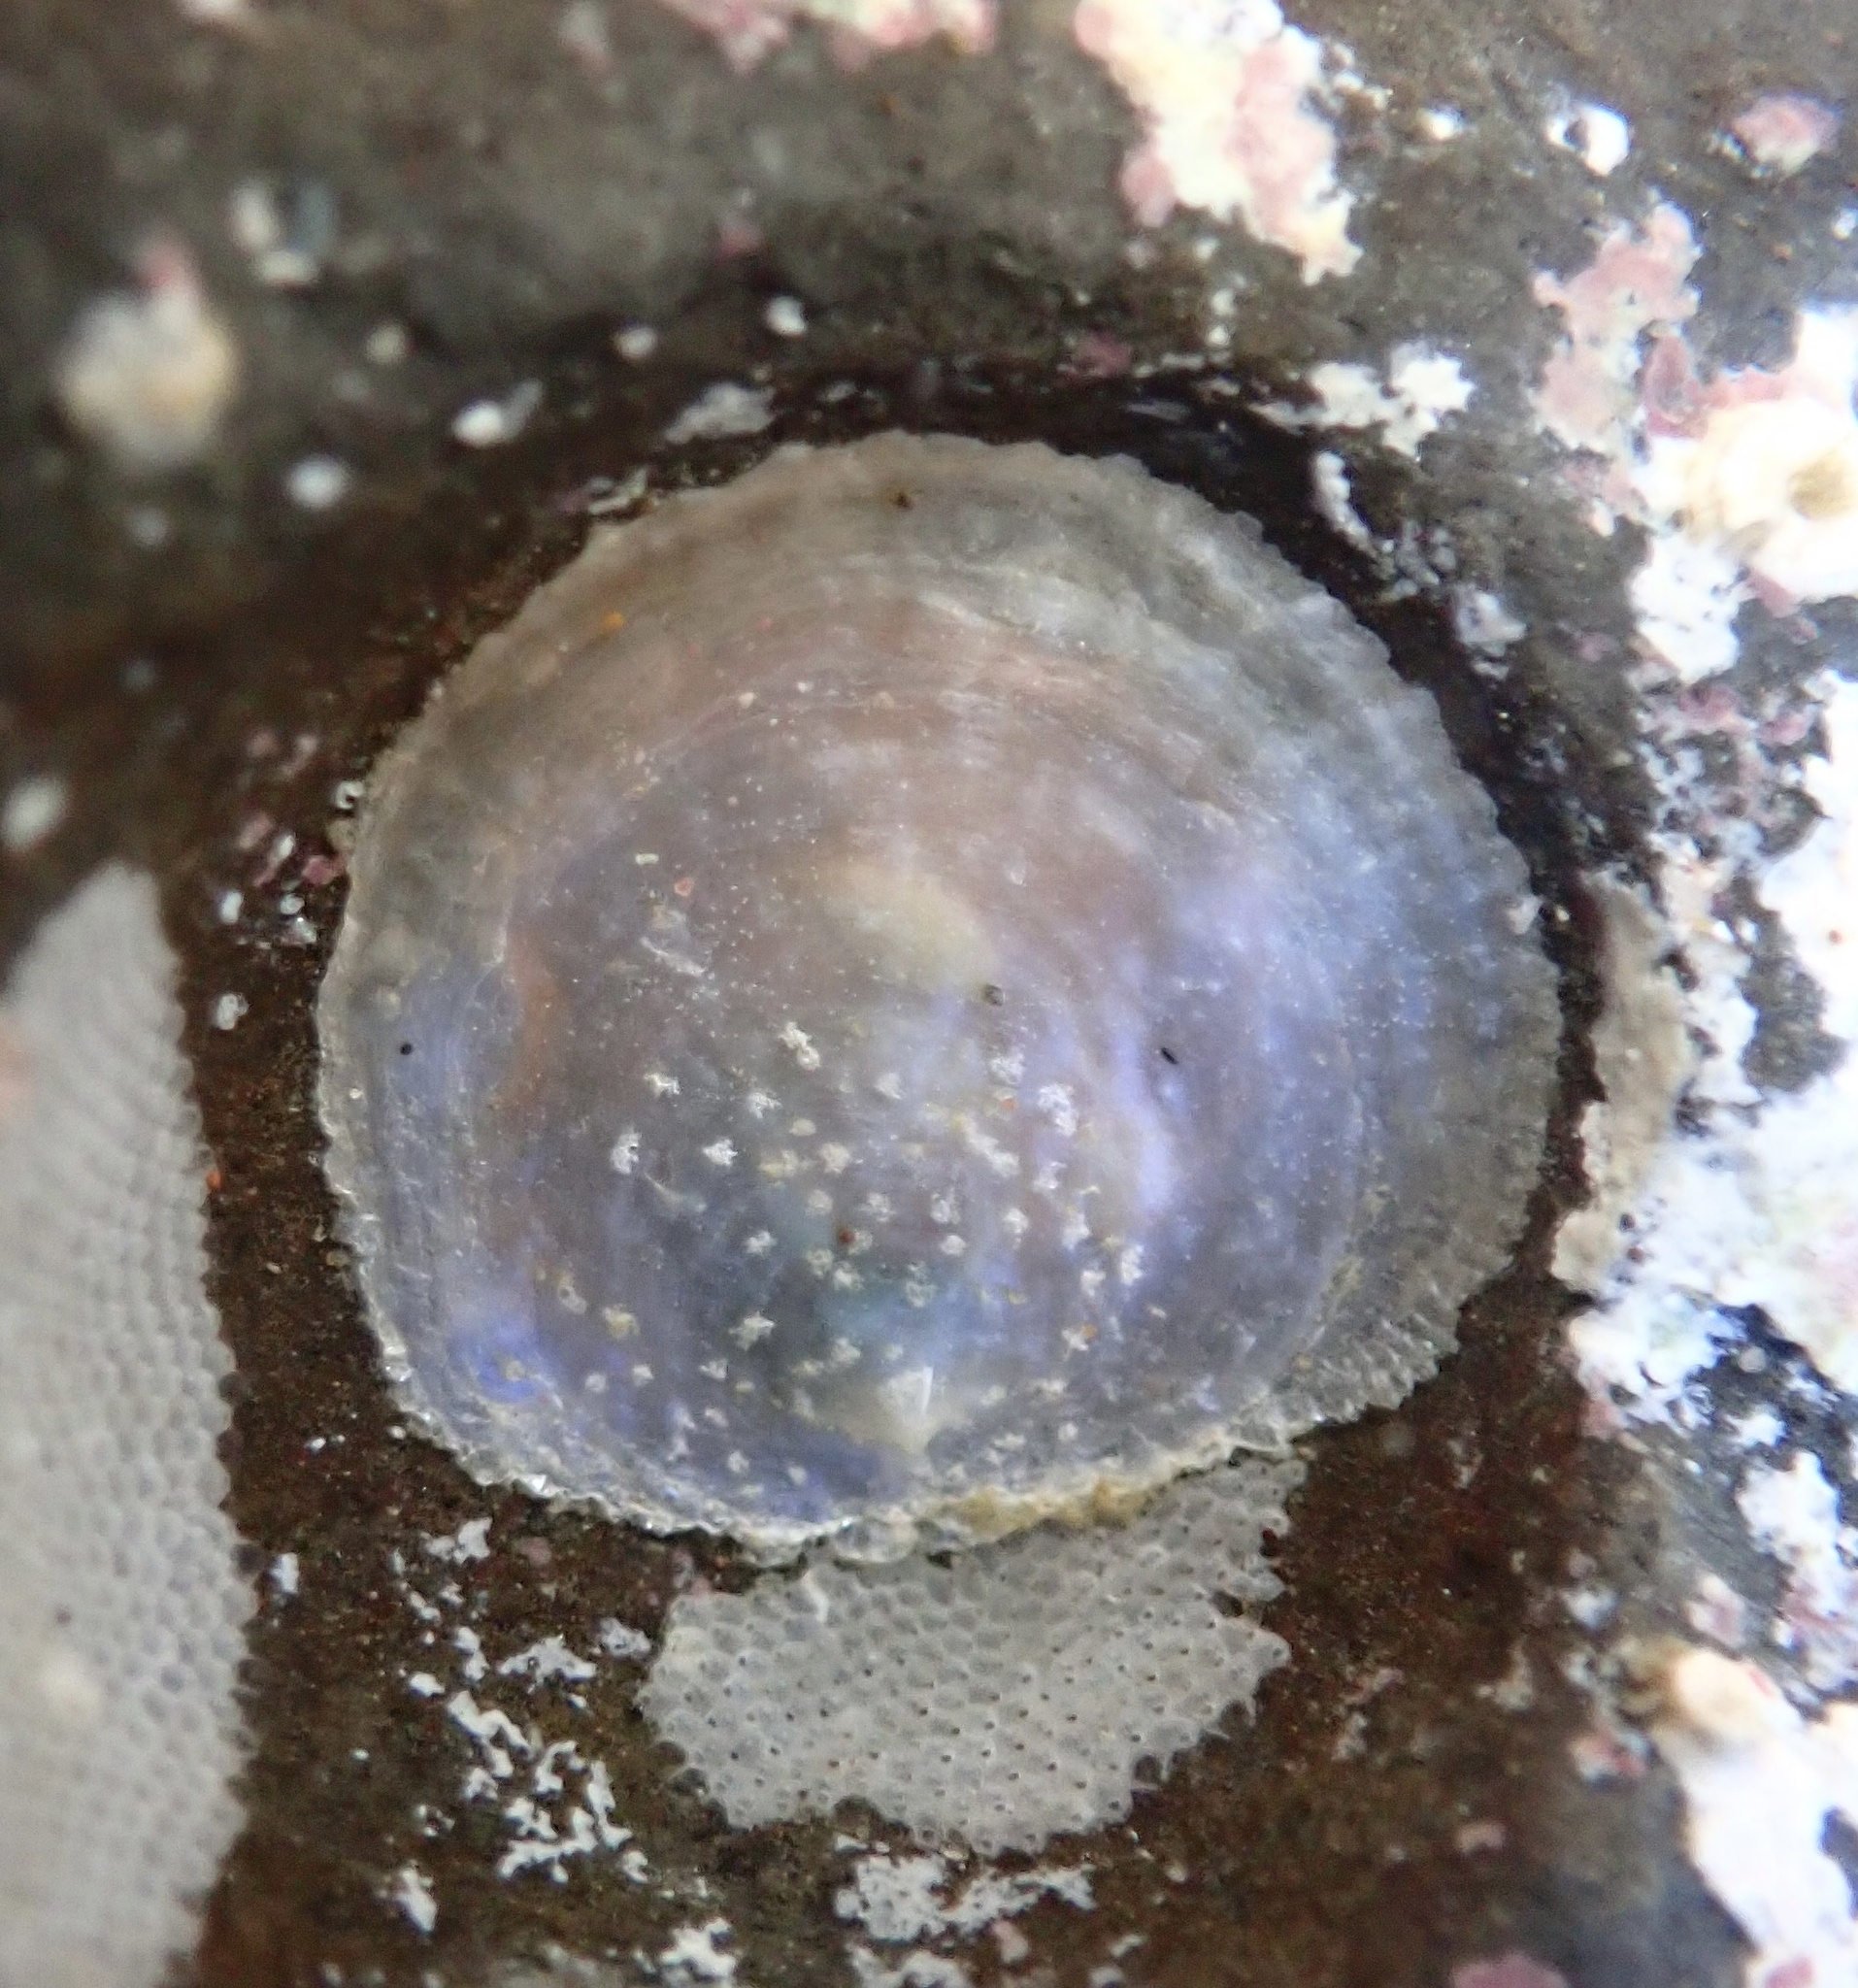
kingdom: Animalia
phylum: Mollusca
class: Bivalvia
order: Pectinida
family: Anomiidae
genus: Pododesmus
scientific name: Pododesmus macrochisma
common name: Alaska jingle
